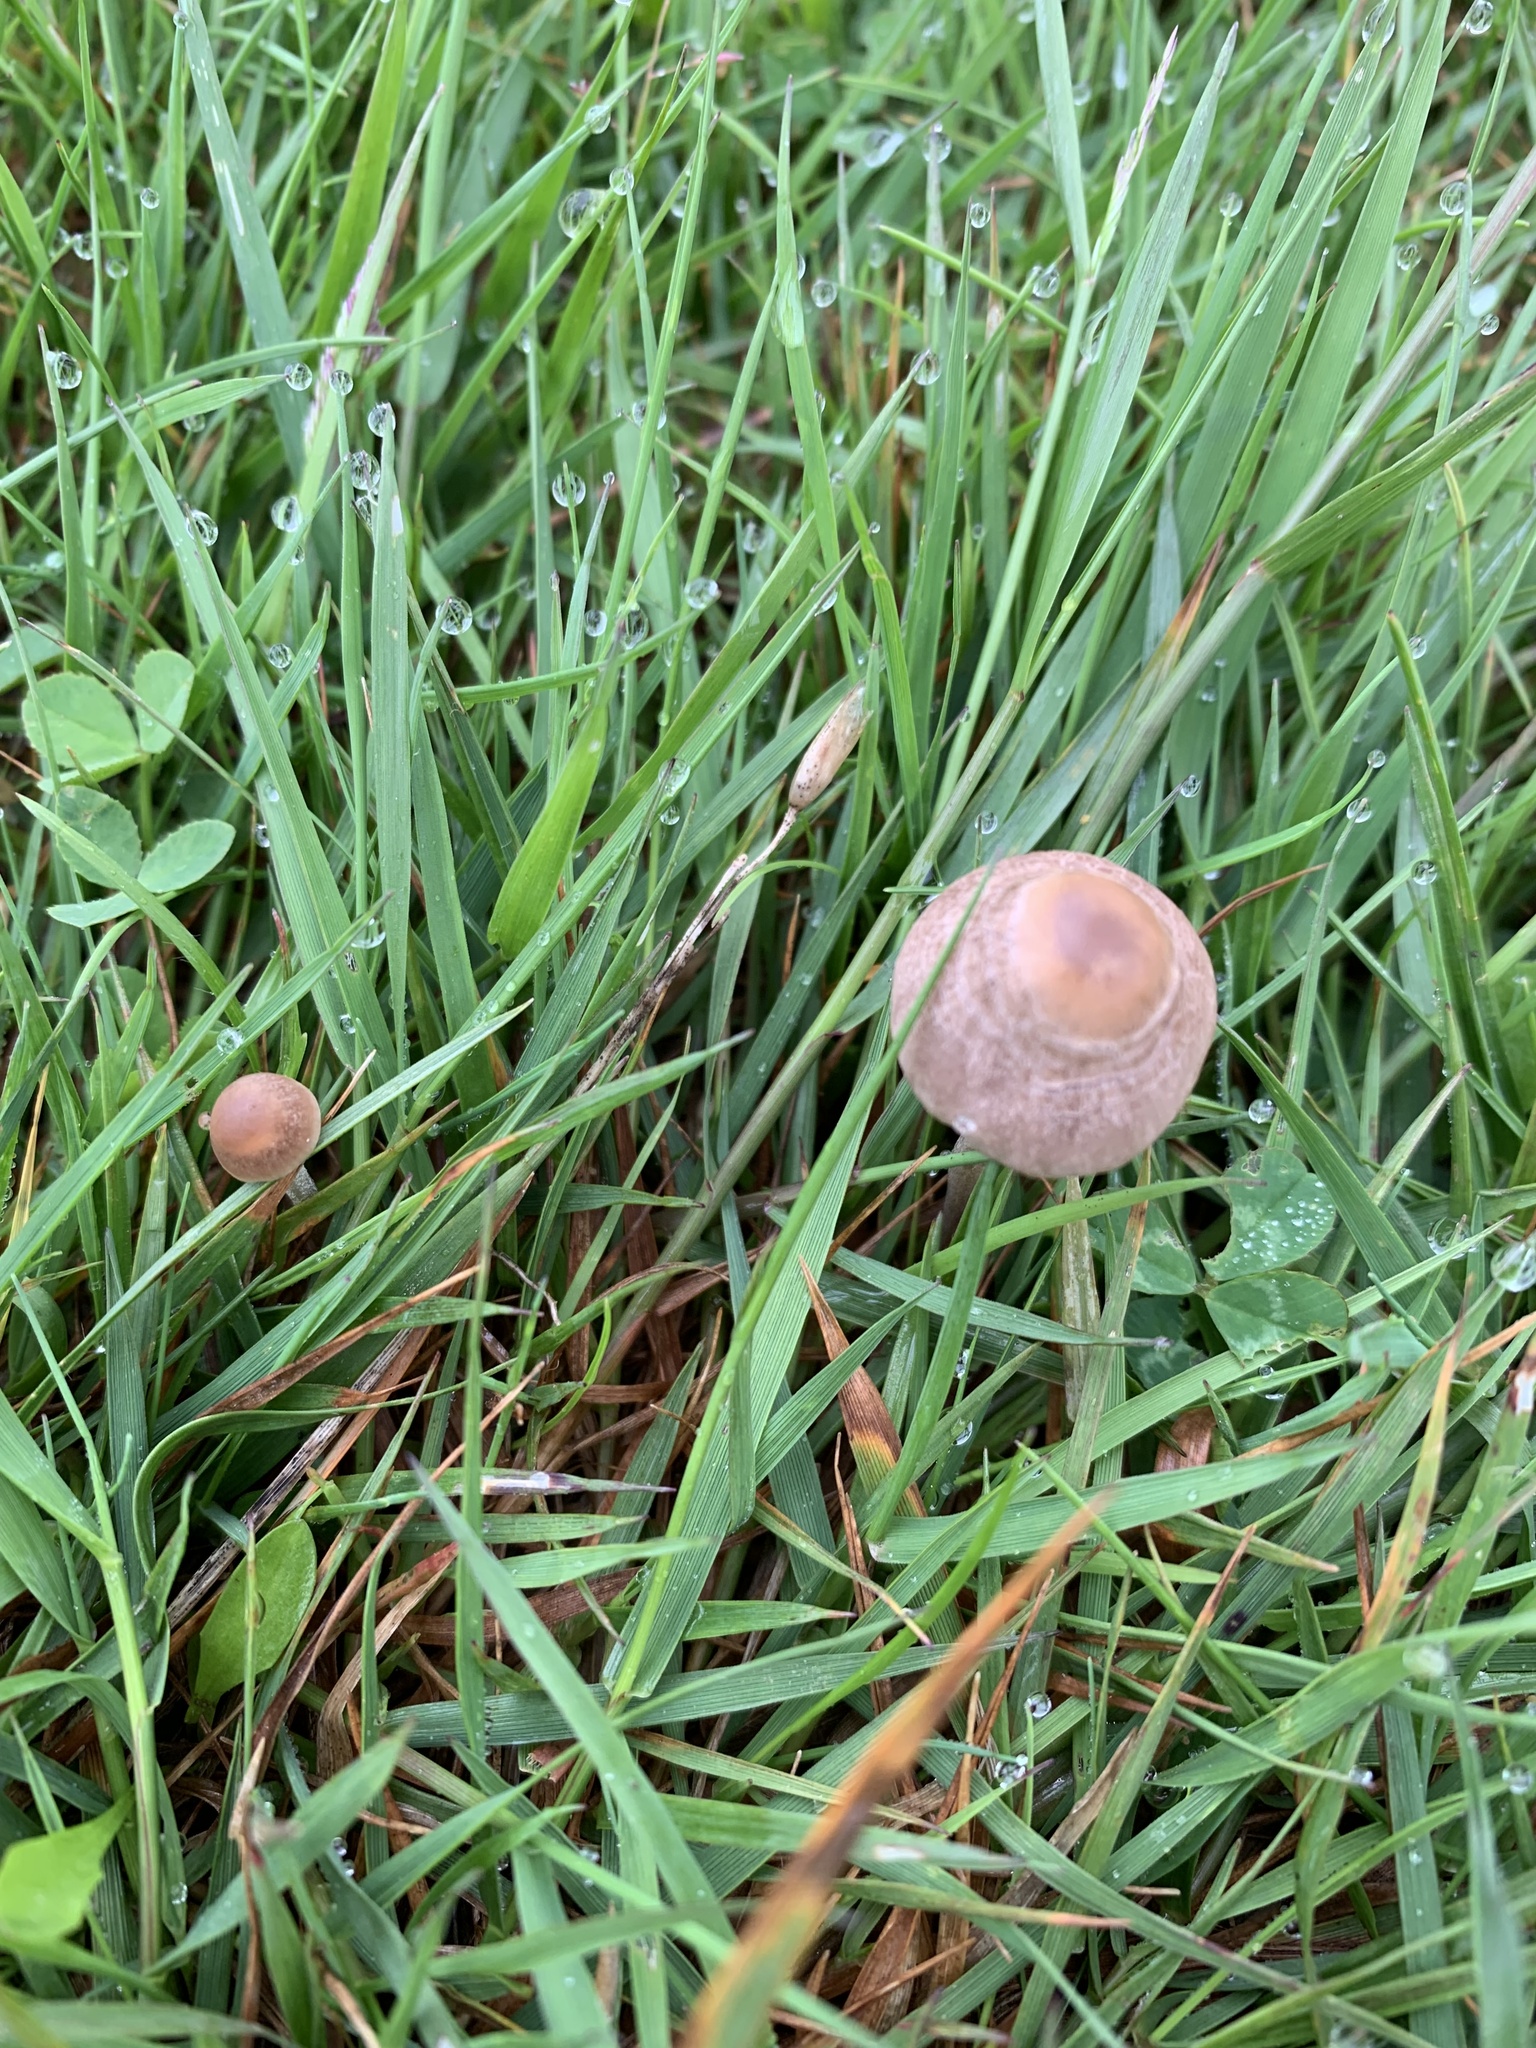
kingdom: Fungi
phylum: Basidiomycota
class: Agaricomycetes
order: Agaricales
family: Bolbitiaceae
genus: Panaeolina
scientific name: Panaeolina foenisecii
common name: Brown hay cap
